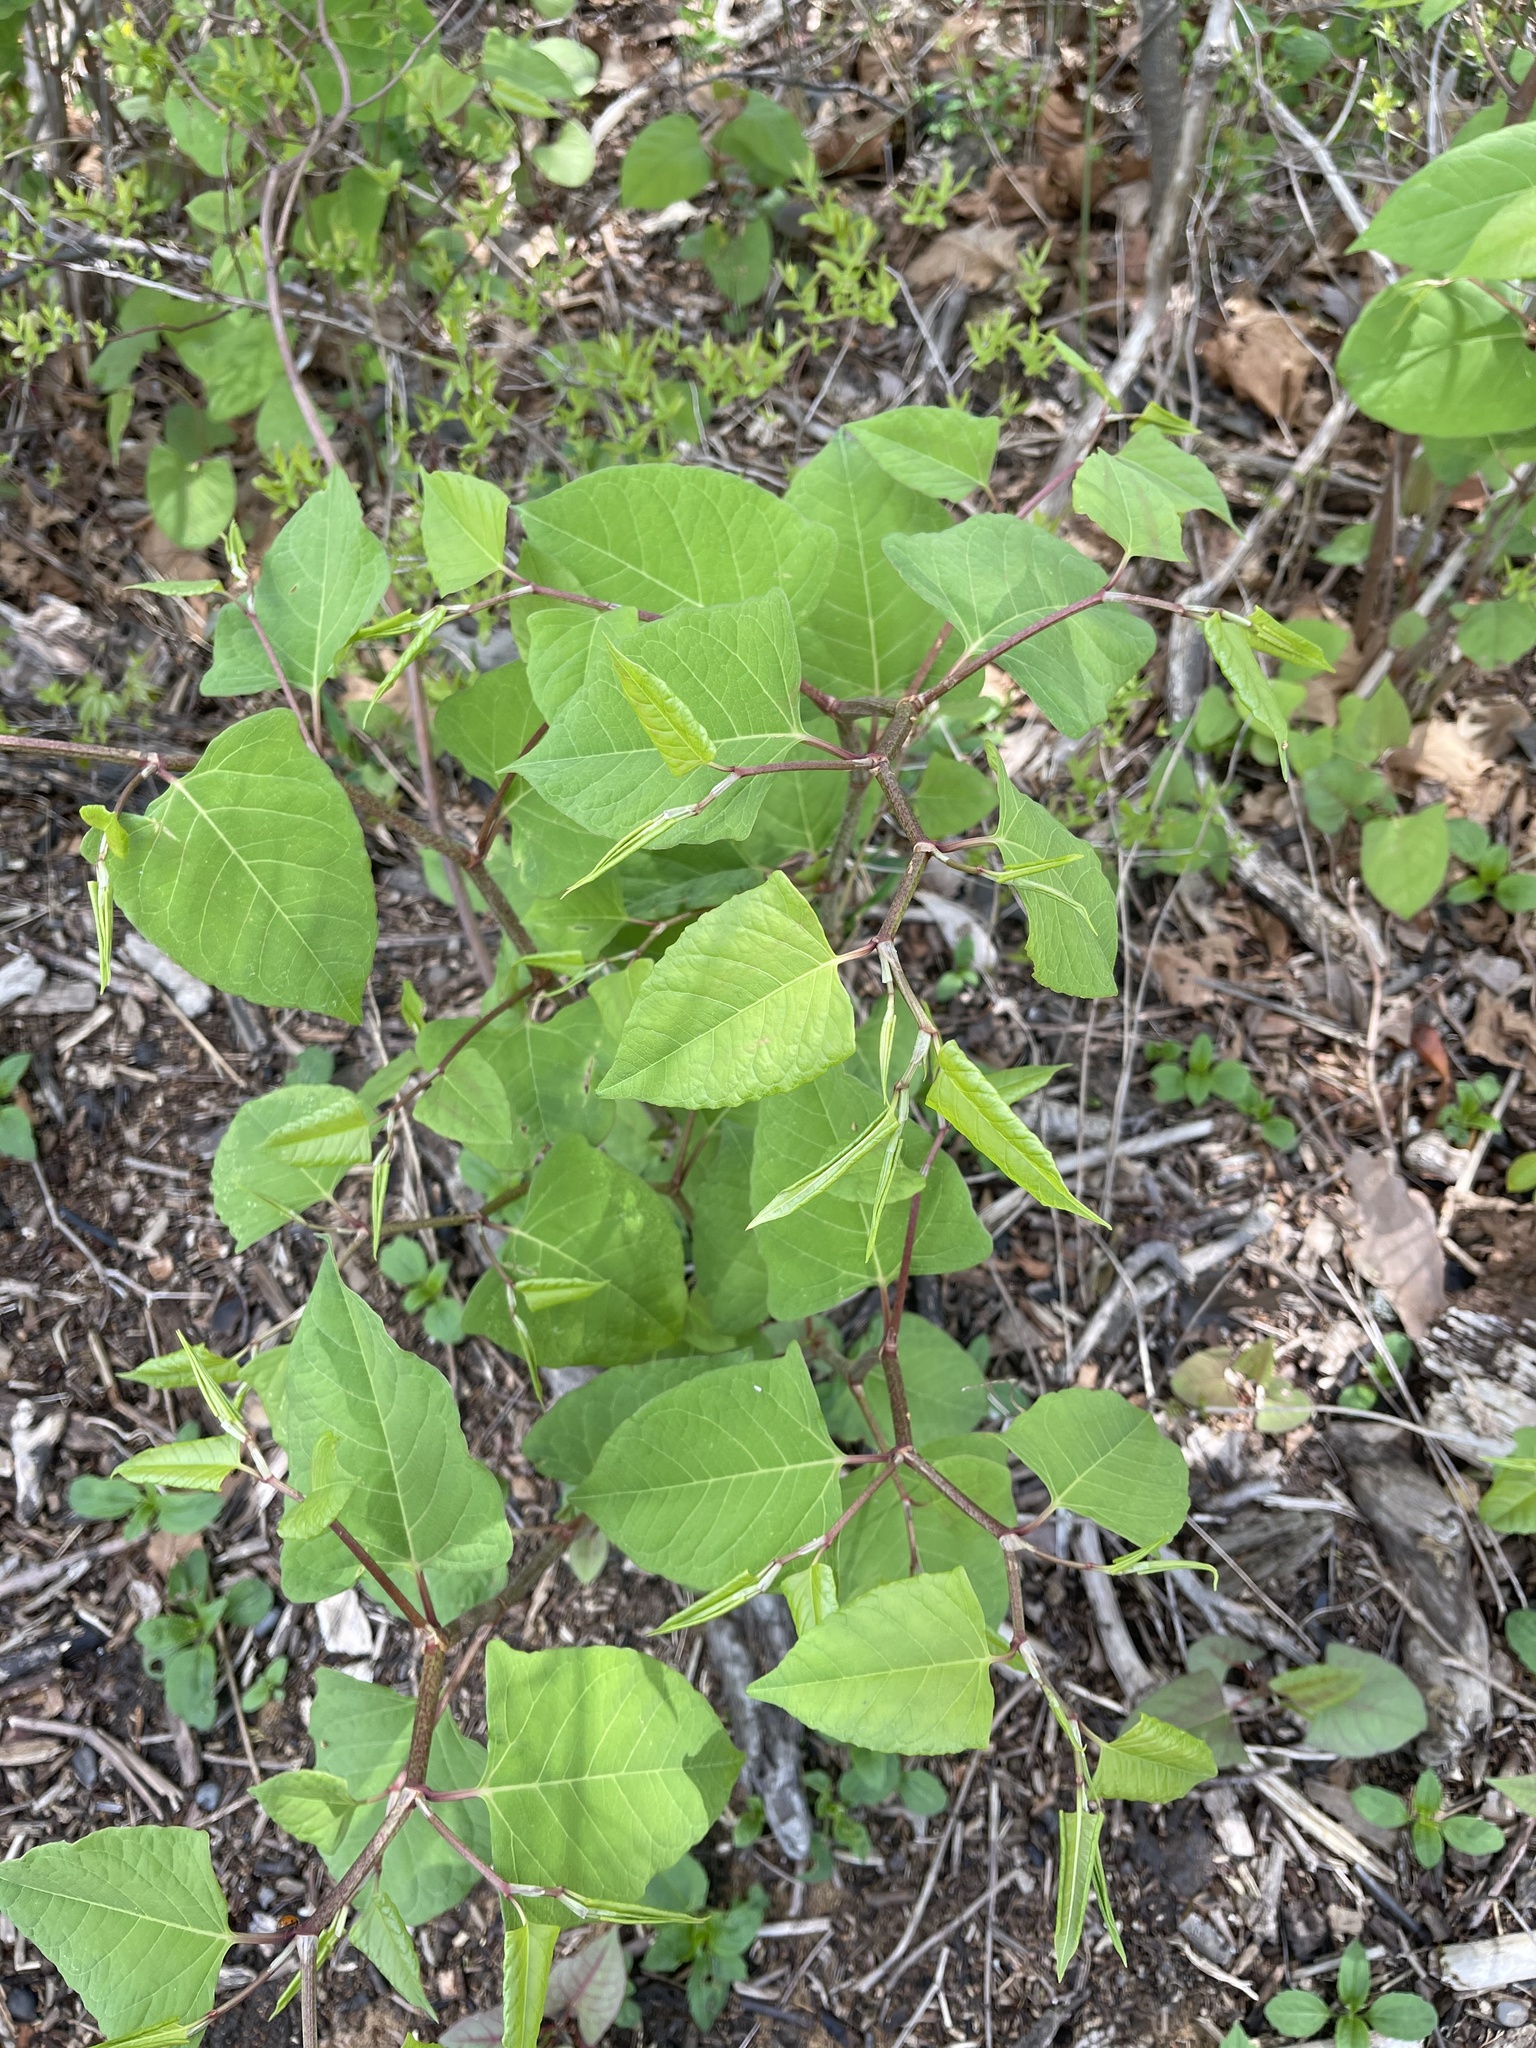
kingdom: Plantae
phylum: Tracheophyta
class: Magnoliopsida
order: Caryophyllales
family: Polygonaceae
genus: Reynoutria
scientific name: Reynoutria japonica
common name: Japanese knotweed
